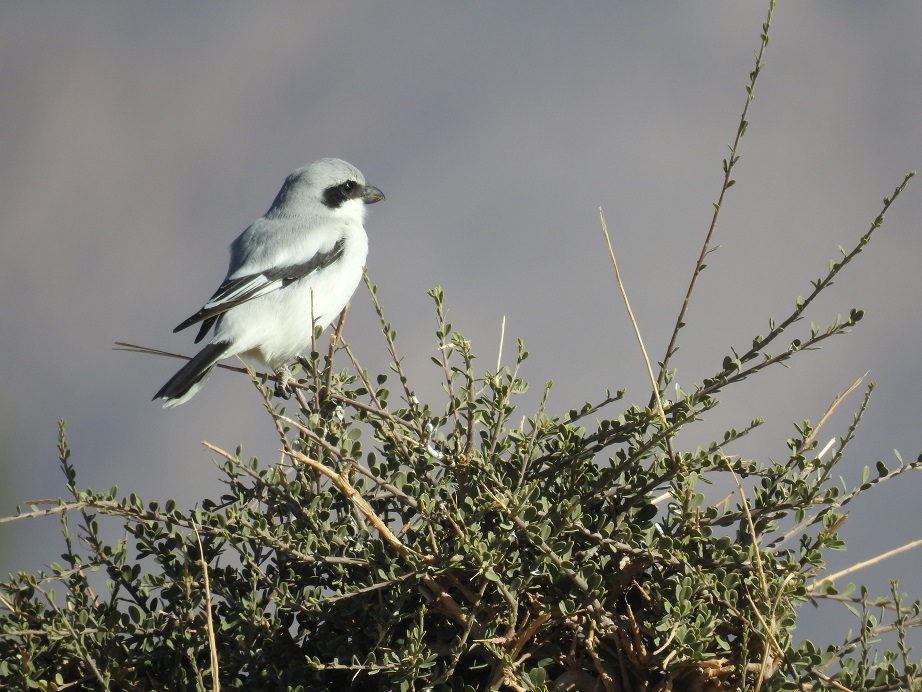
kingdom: Animalia
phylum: Chordata
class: Aves
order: Passeriformes
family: Laniidae
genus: Lanius
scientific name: Lanius excubitor
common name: Great grey shrike
